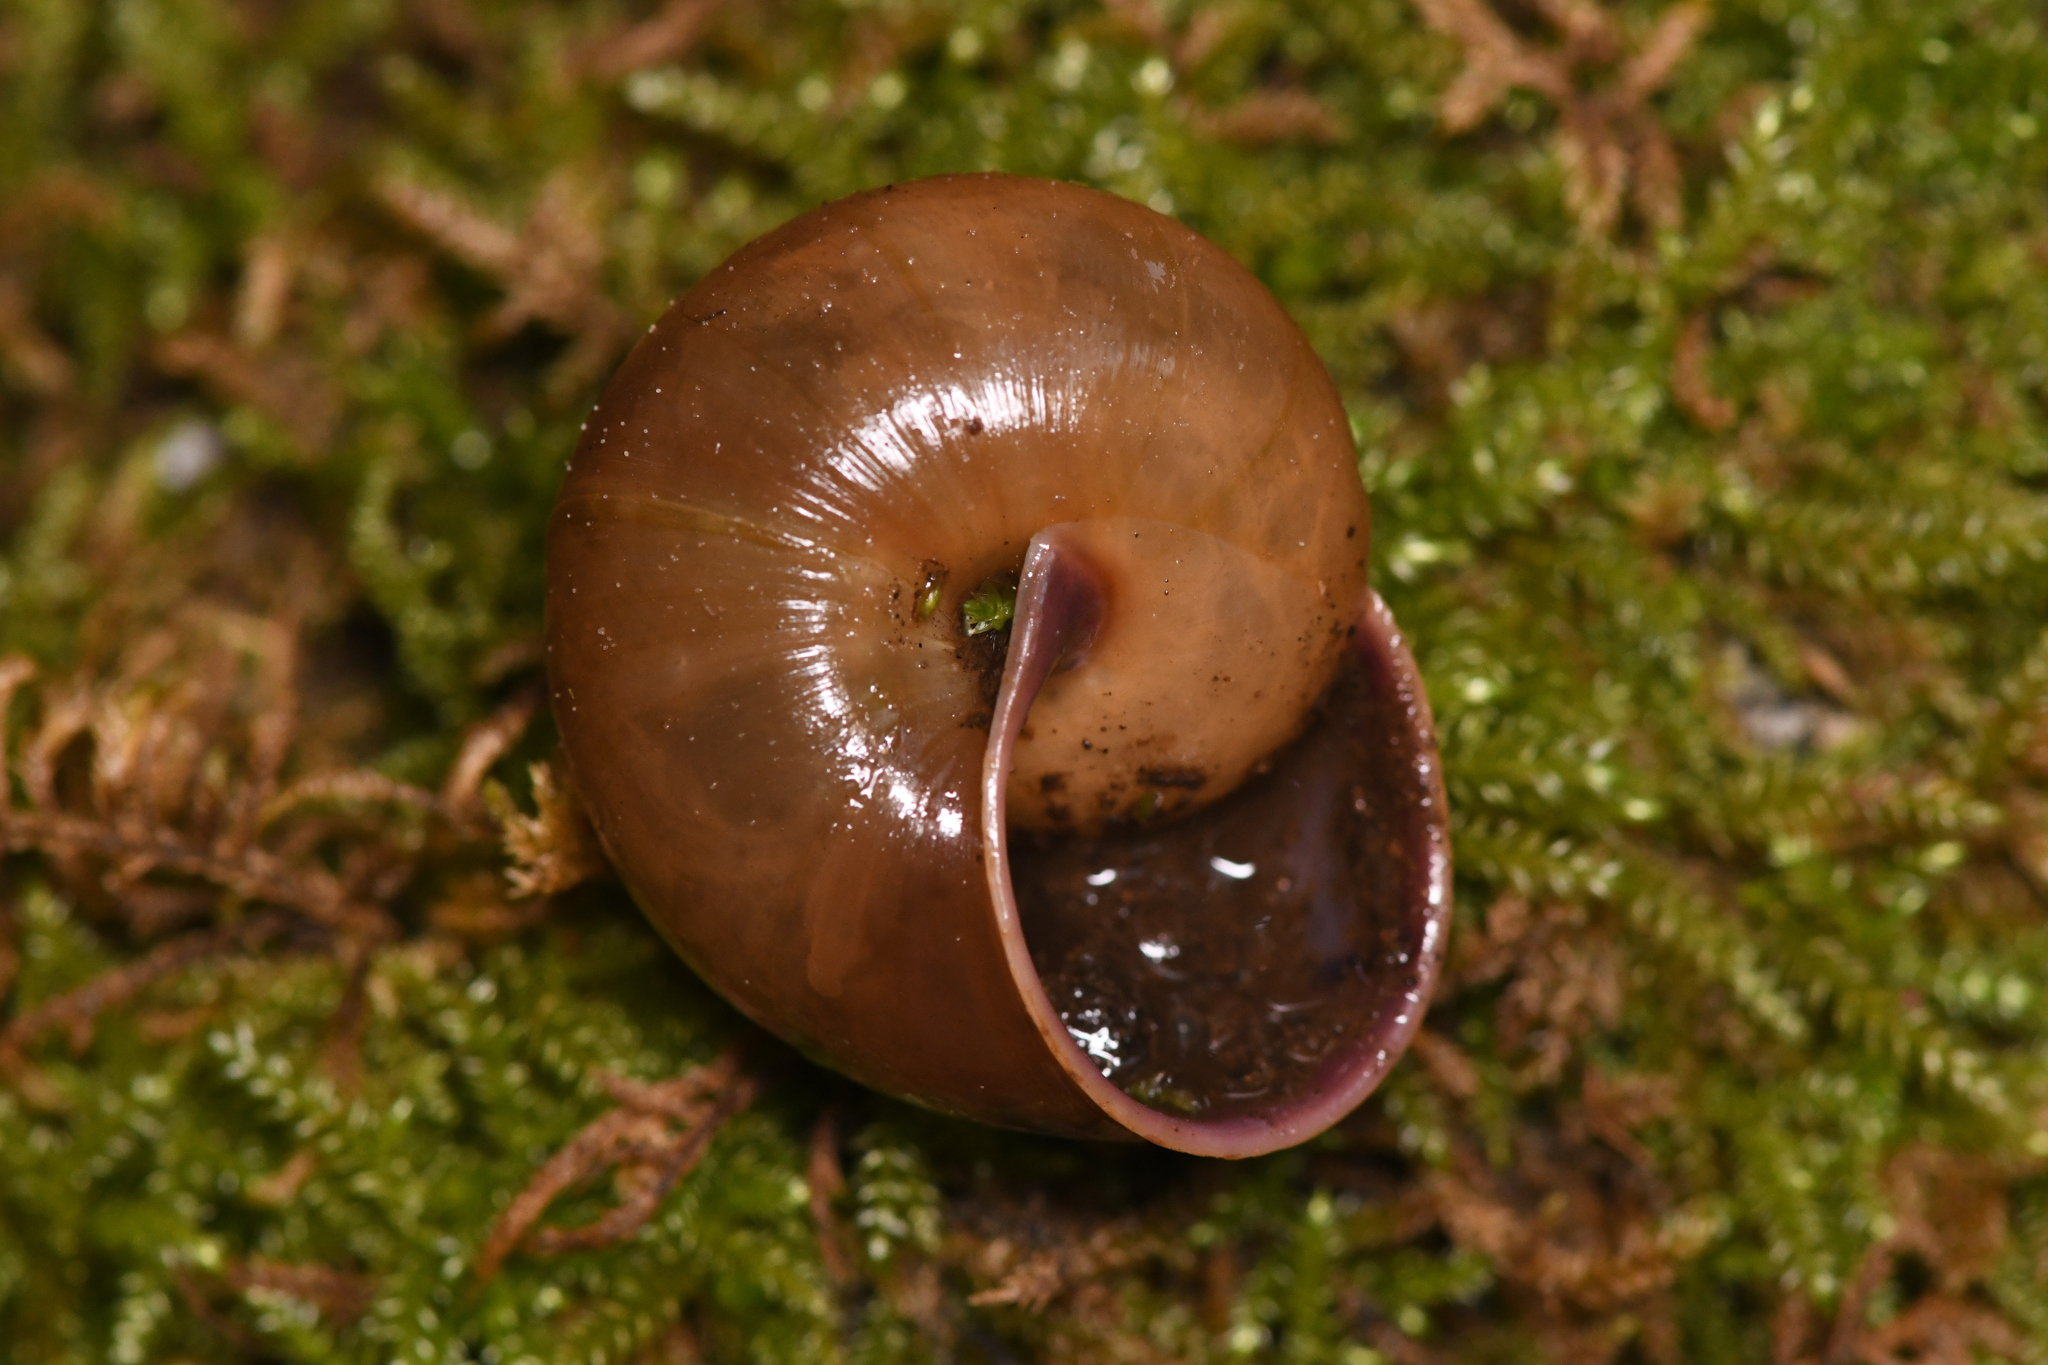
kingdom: Animalia
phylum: Mollusca
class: Gastropoda
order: Stylommatophora
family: Xanthonychidae
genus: Helminthoglypta
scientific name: Helminthoglypta hertleini
